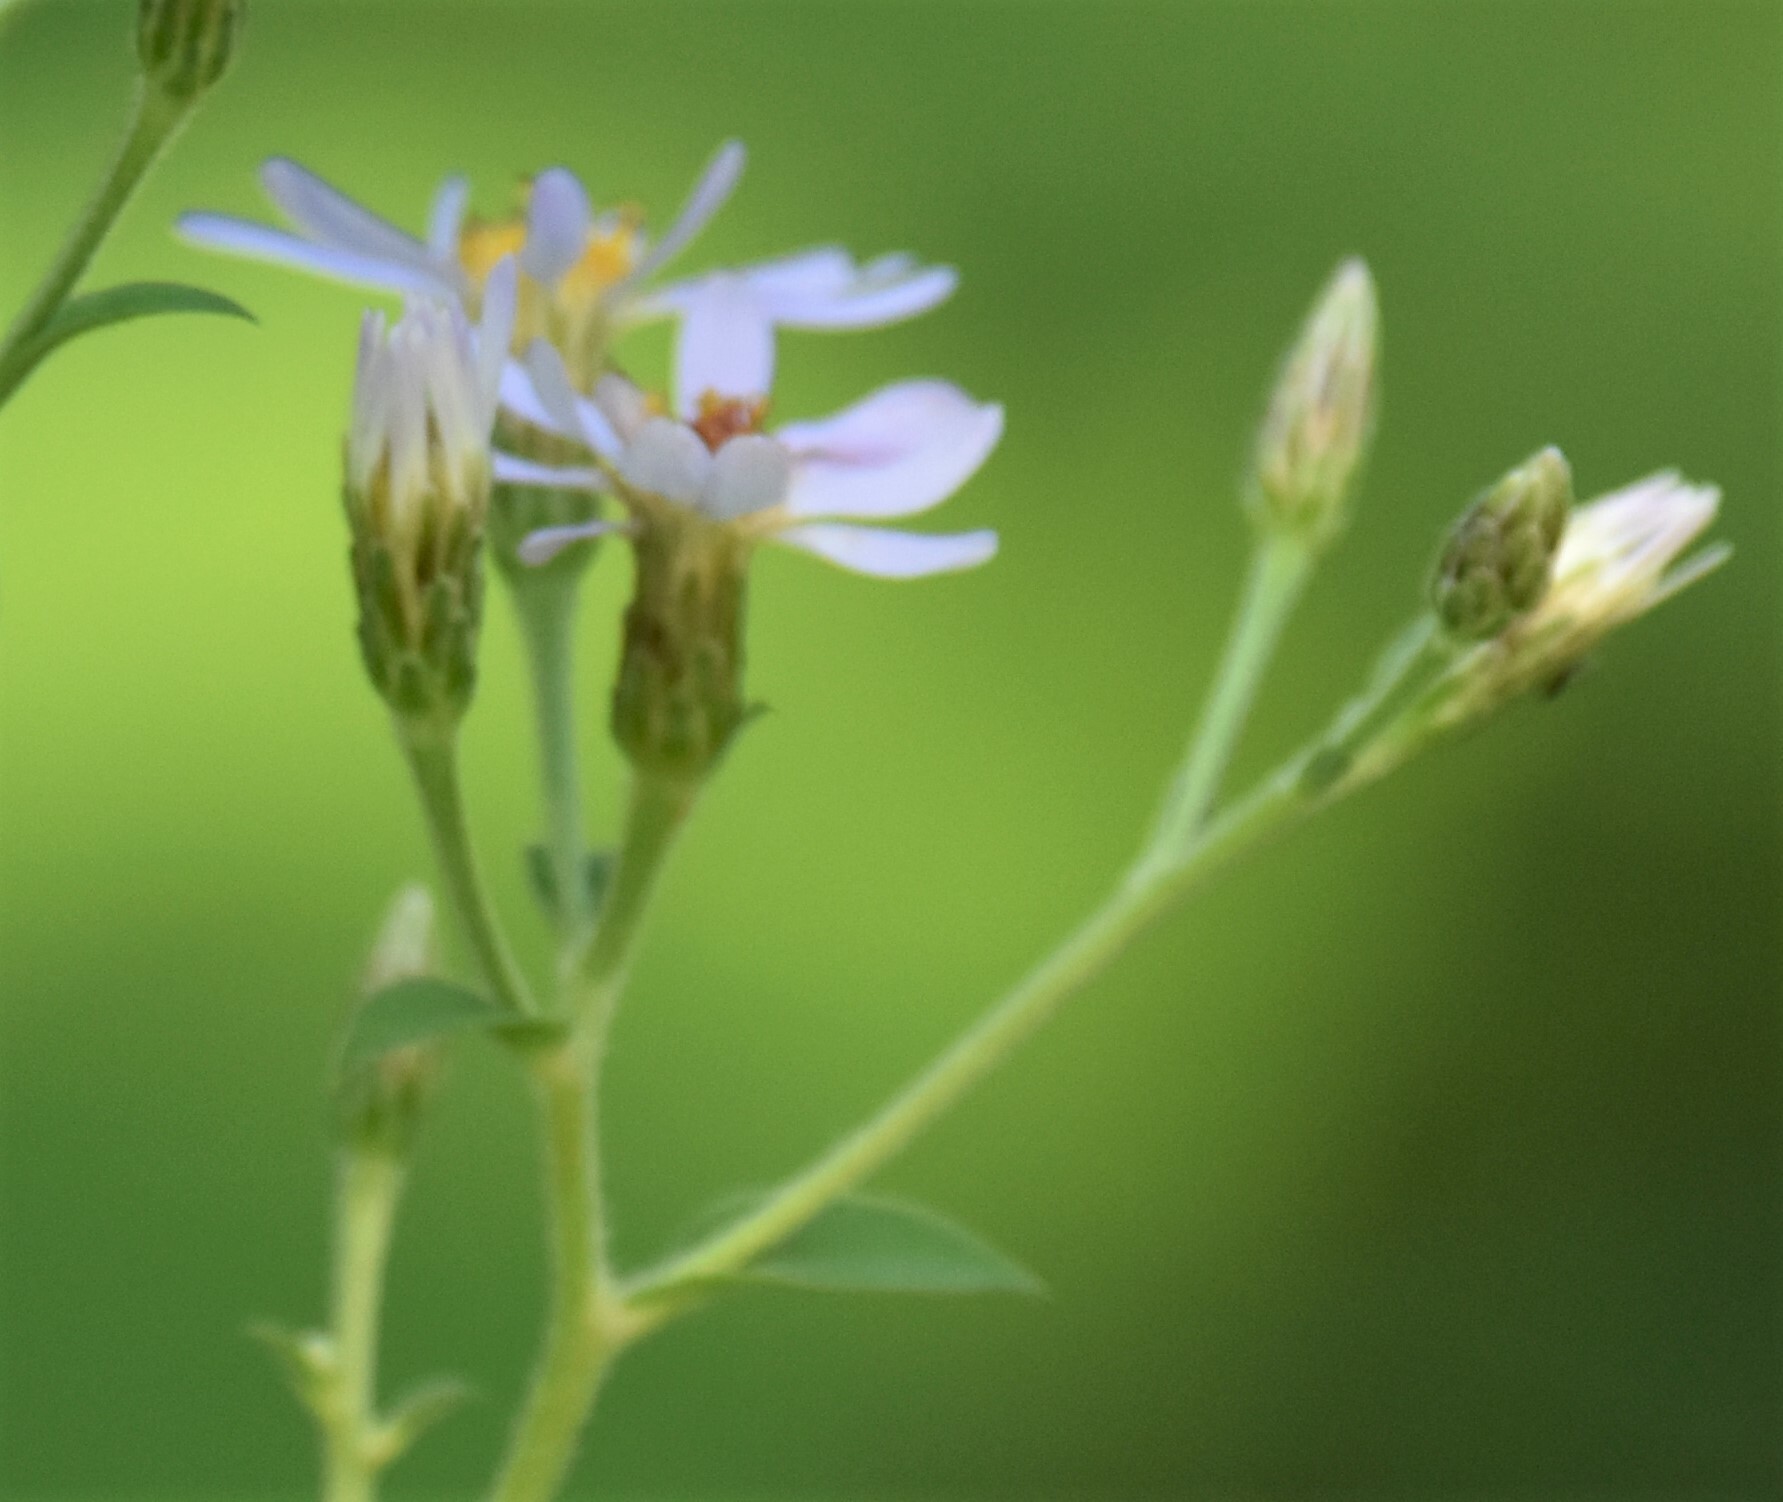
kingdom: Plantae
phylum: Tracheophyta
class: Magnoliopsida
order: Asterales
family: Asteraceae
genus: Eurybia
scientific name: Eurybia macrophylla
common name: Big-leaved aster
